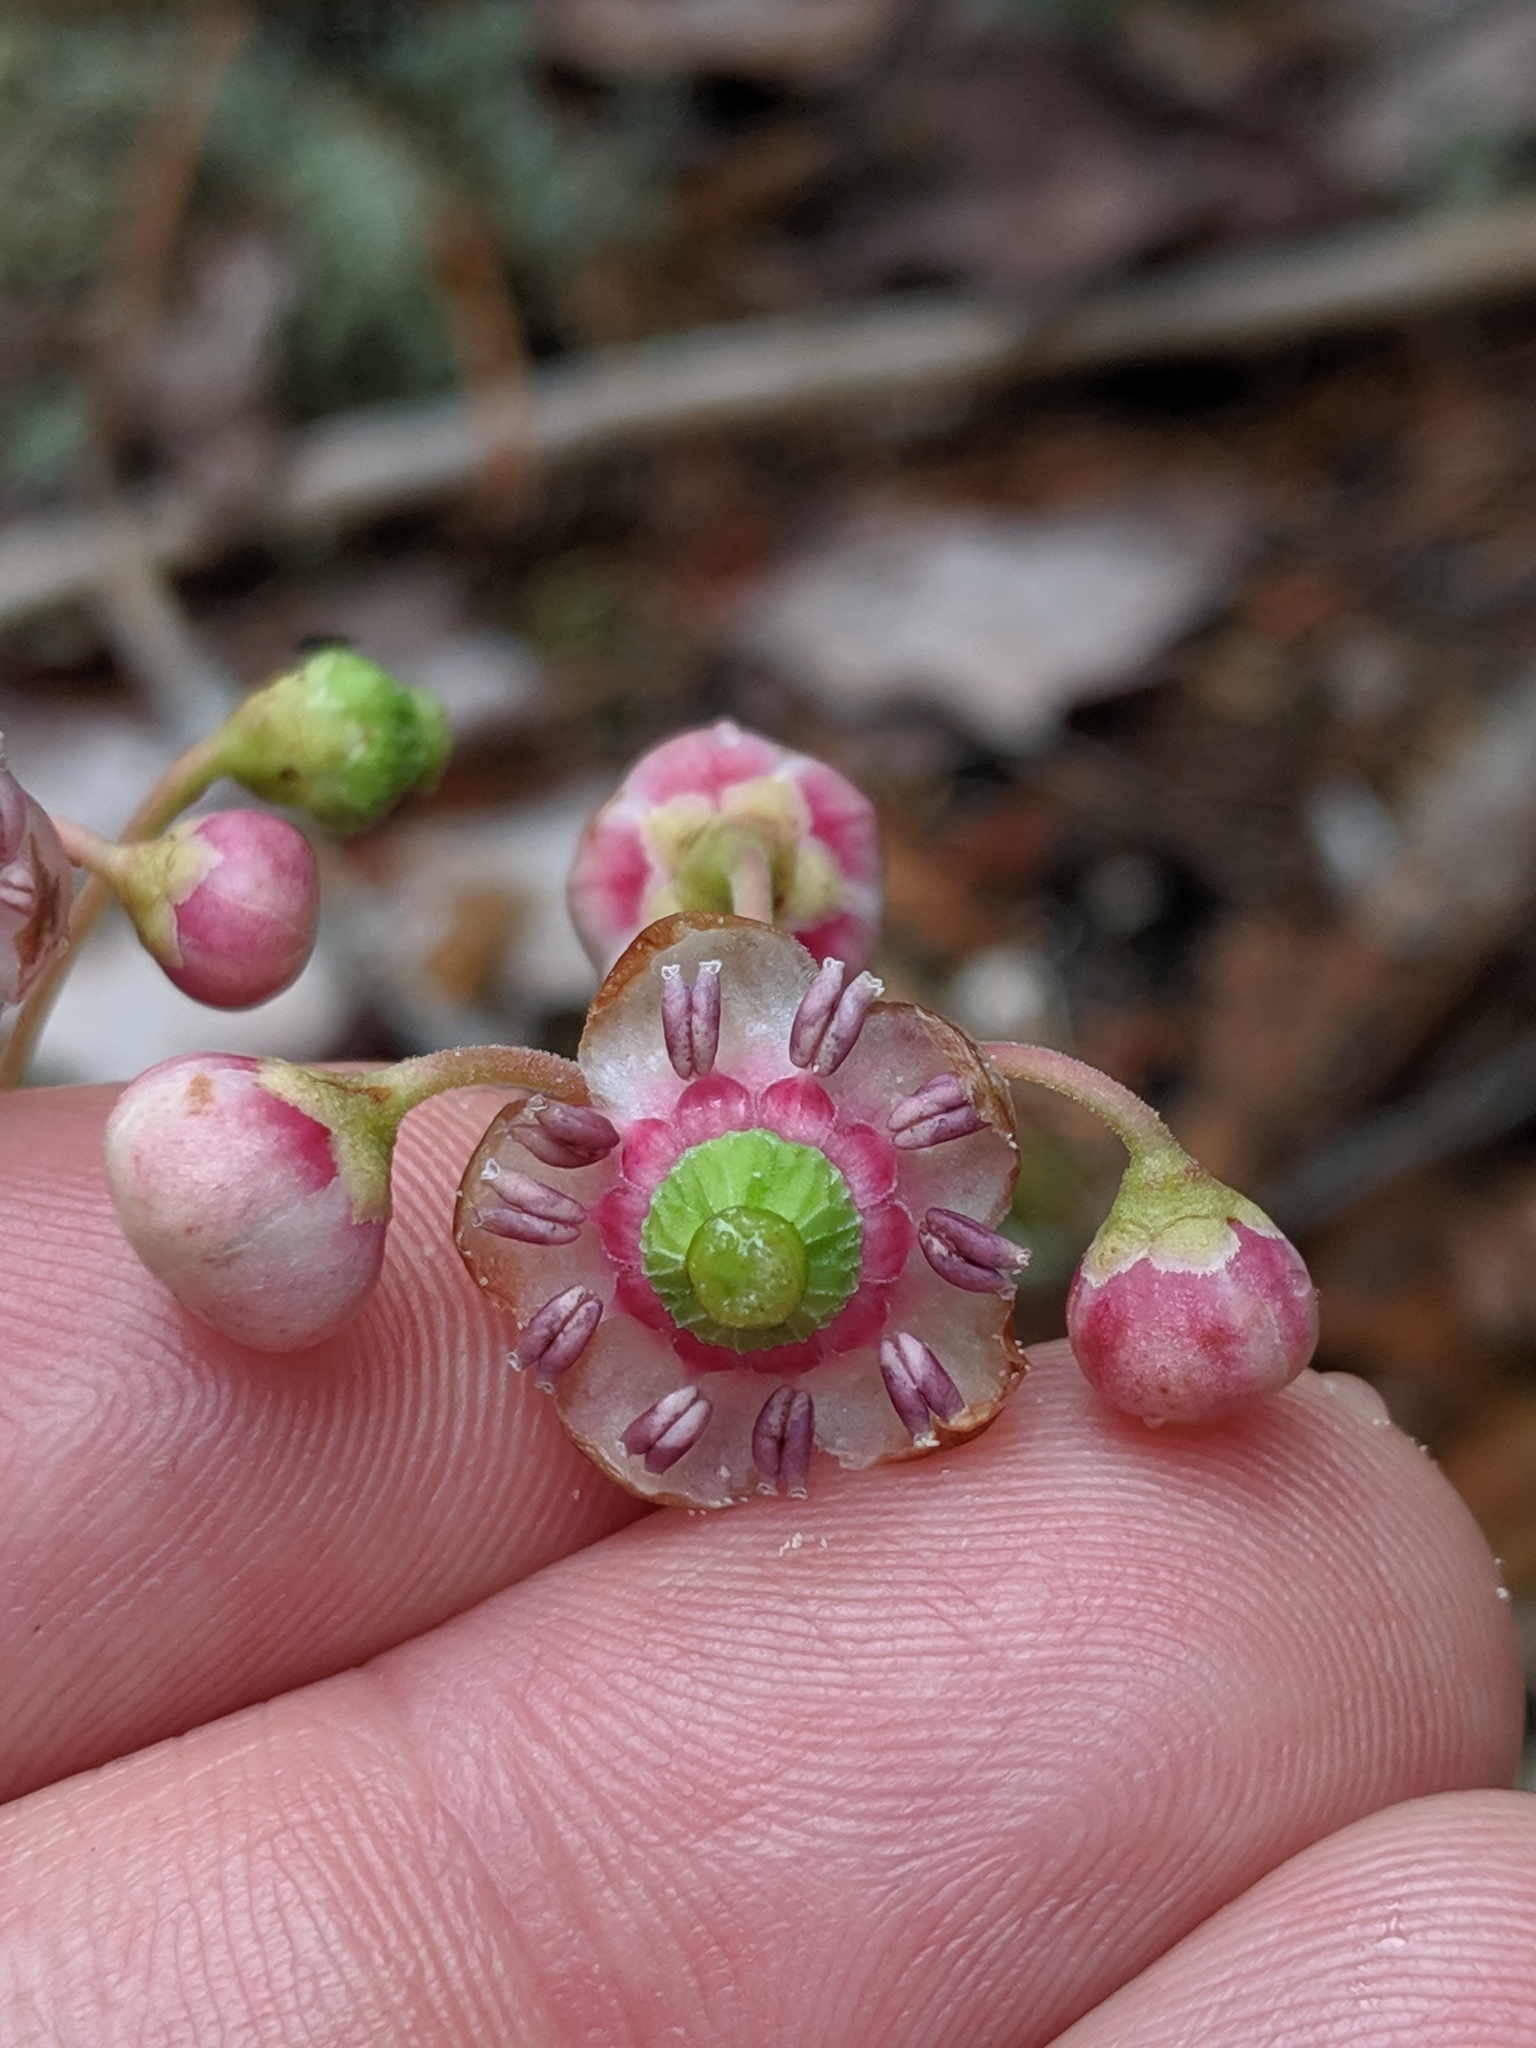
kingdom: Plantae
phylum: Tracheophyta
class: Magnoliopsida
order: Ericales
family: Ericaceae
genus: Chimaphila
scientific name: Chimaphila umbellata
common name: Pipsissewa
